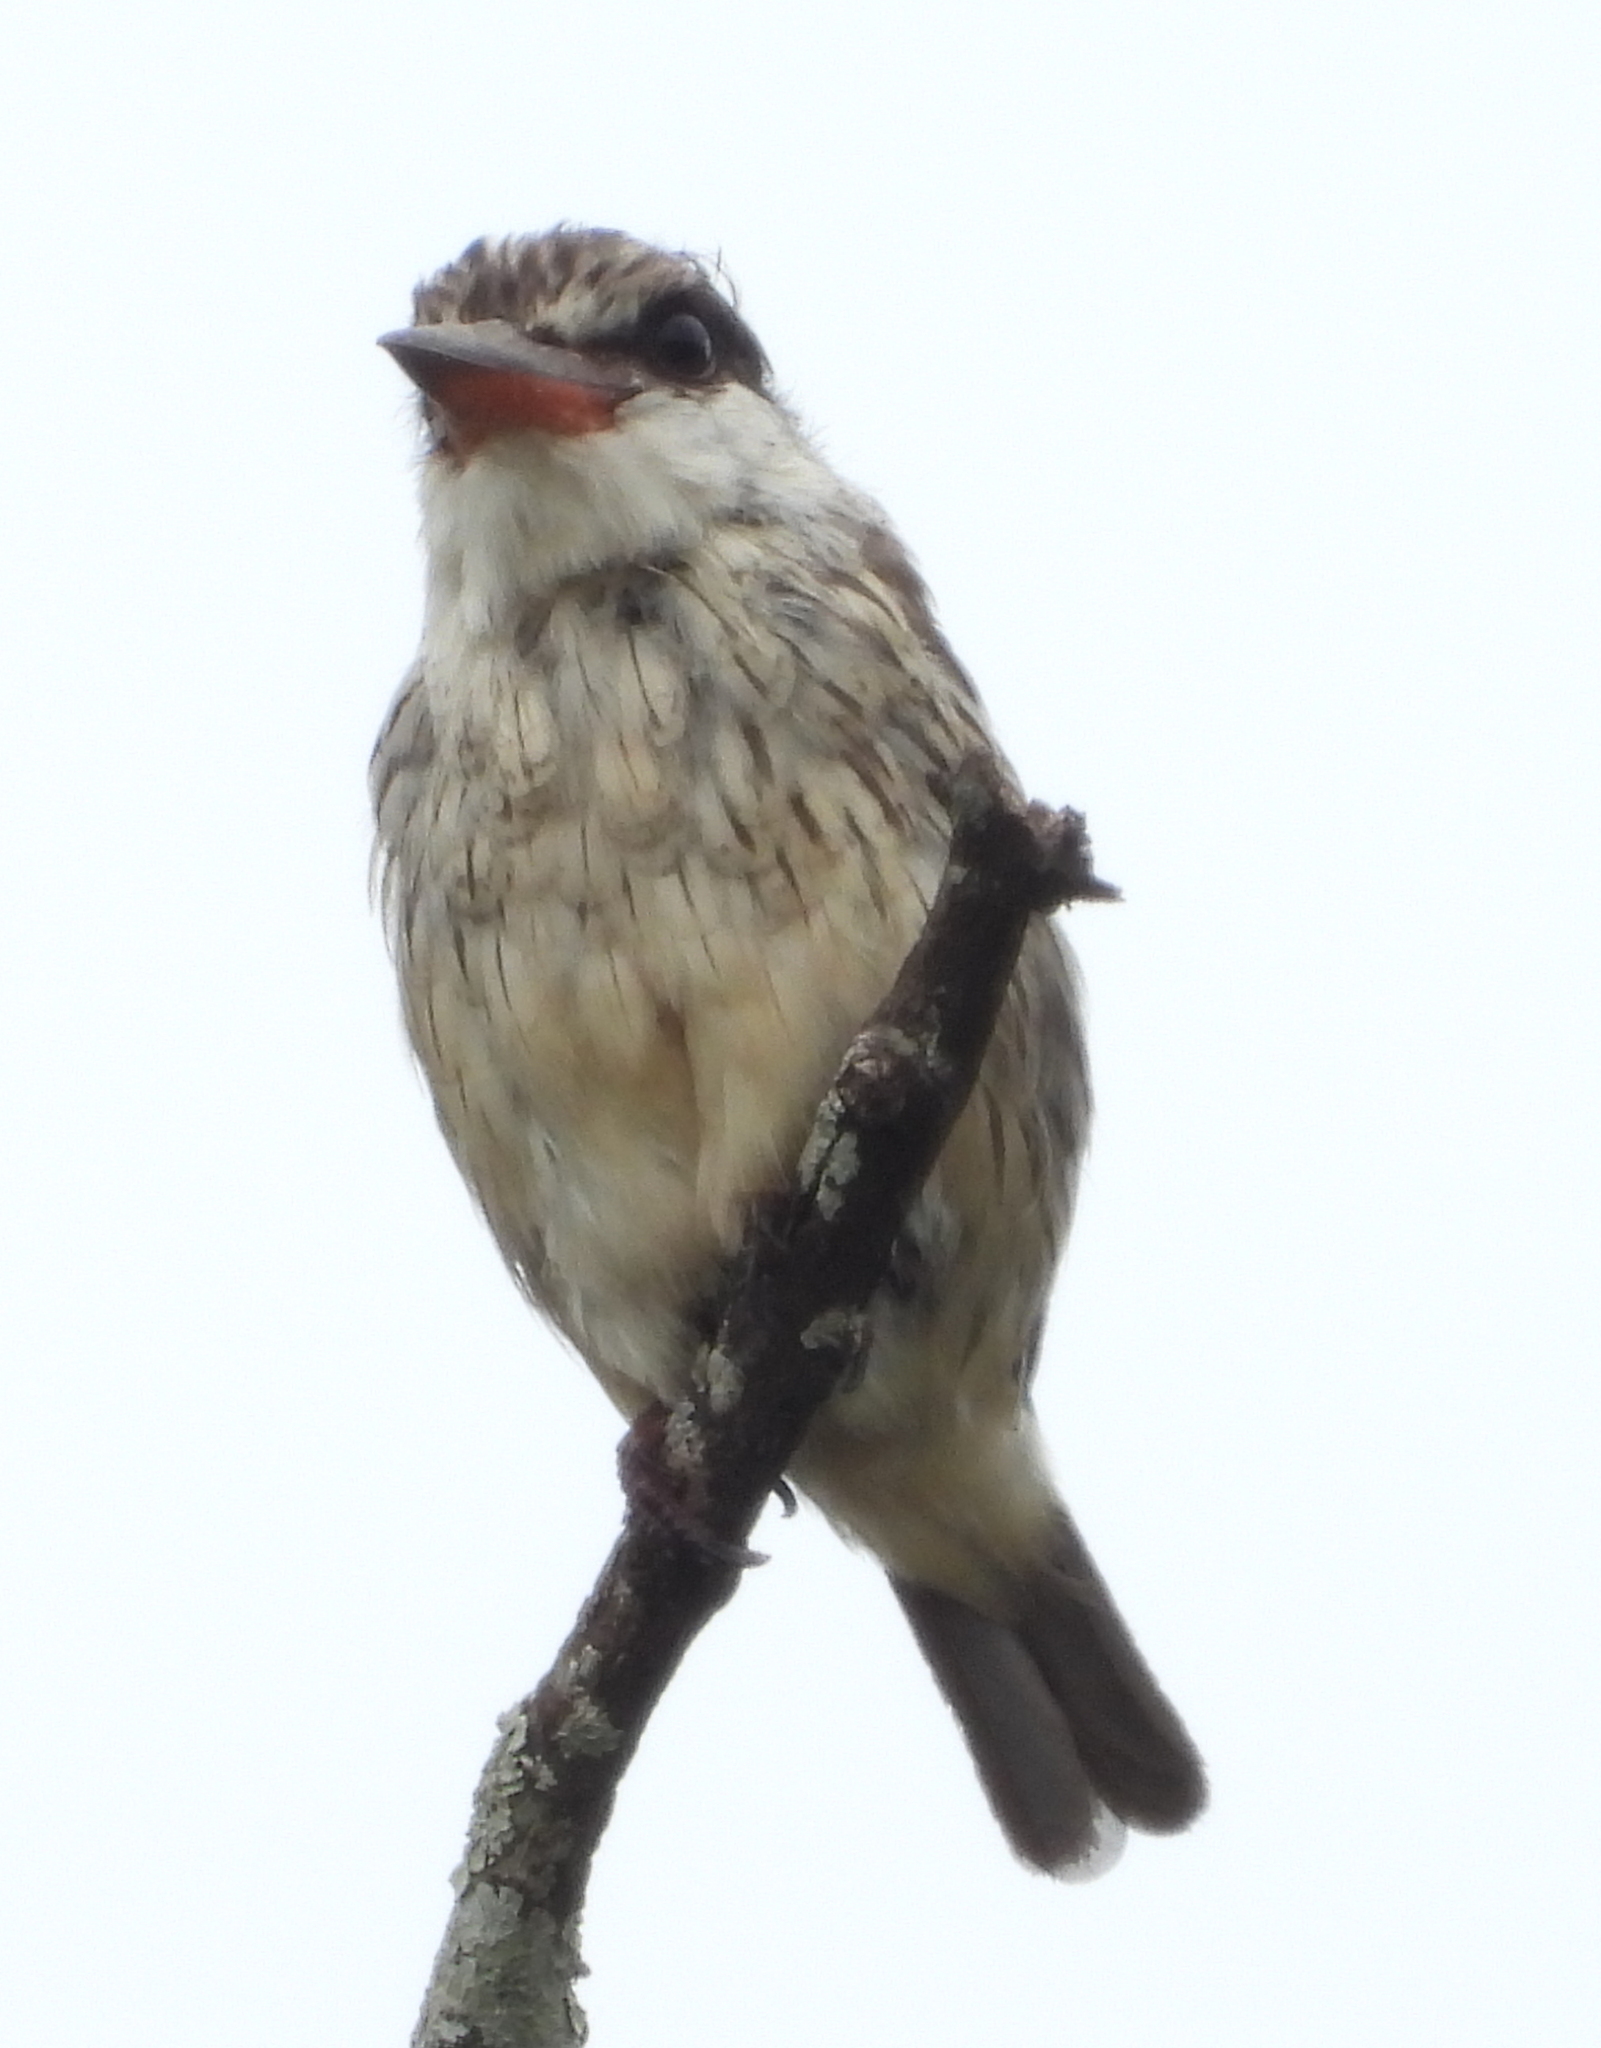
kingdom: Animalia
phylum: Chordata
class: Aves
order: Coraciiformes
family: Alcedinidae
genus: Halcyon
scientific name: Halcyon chelicuti
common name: Striped kingfisher
